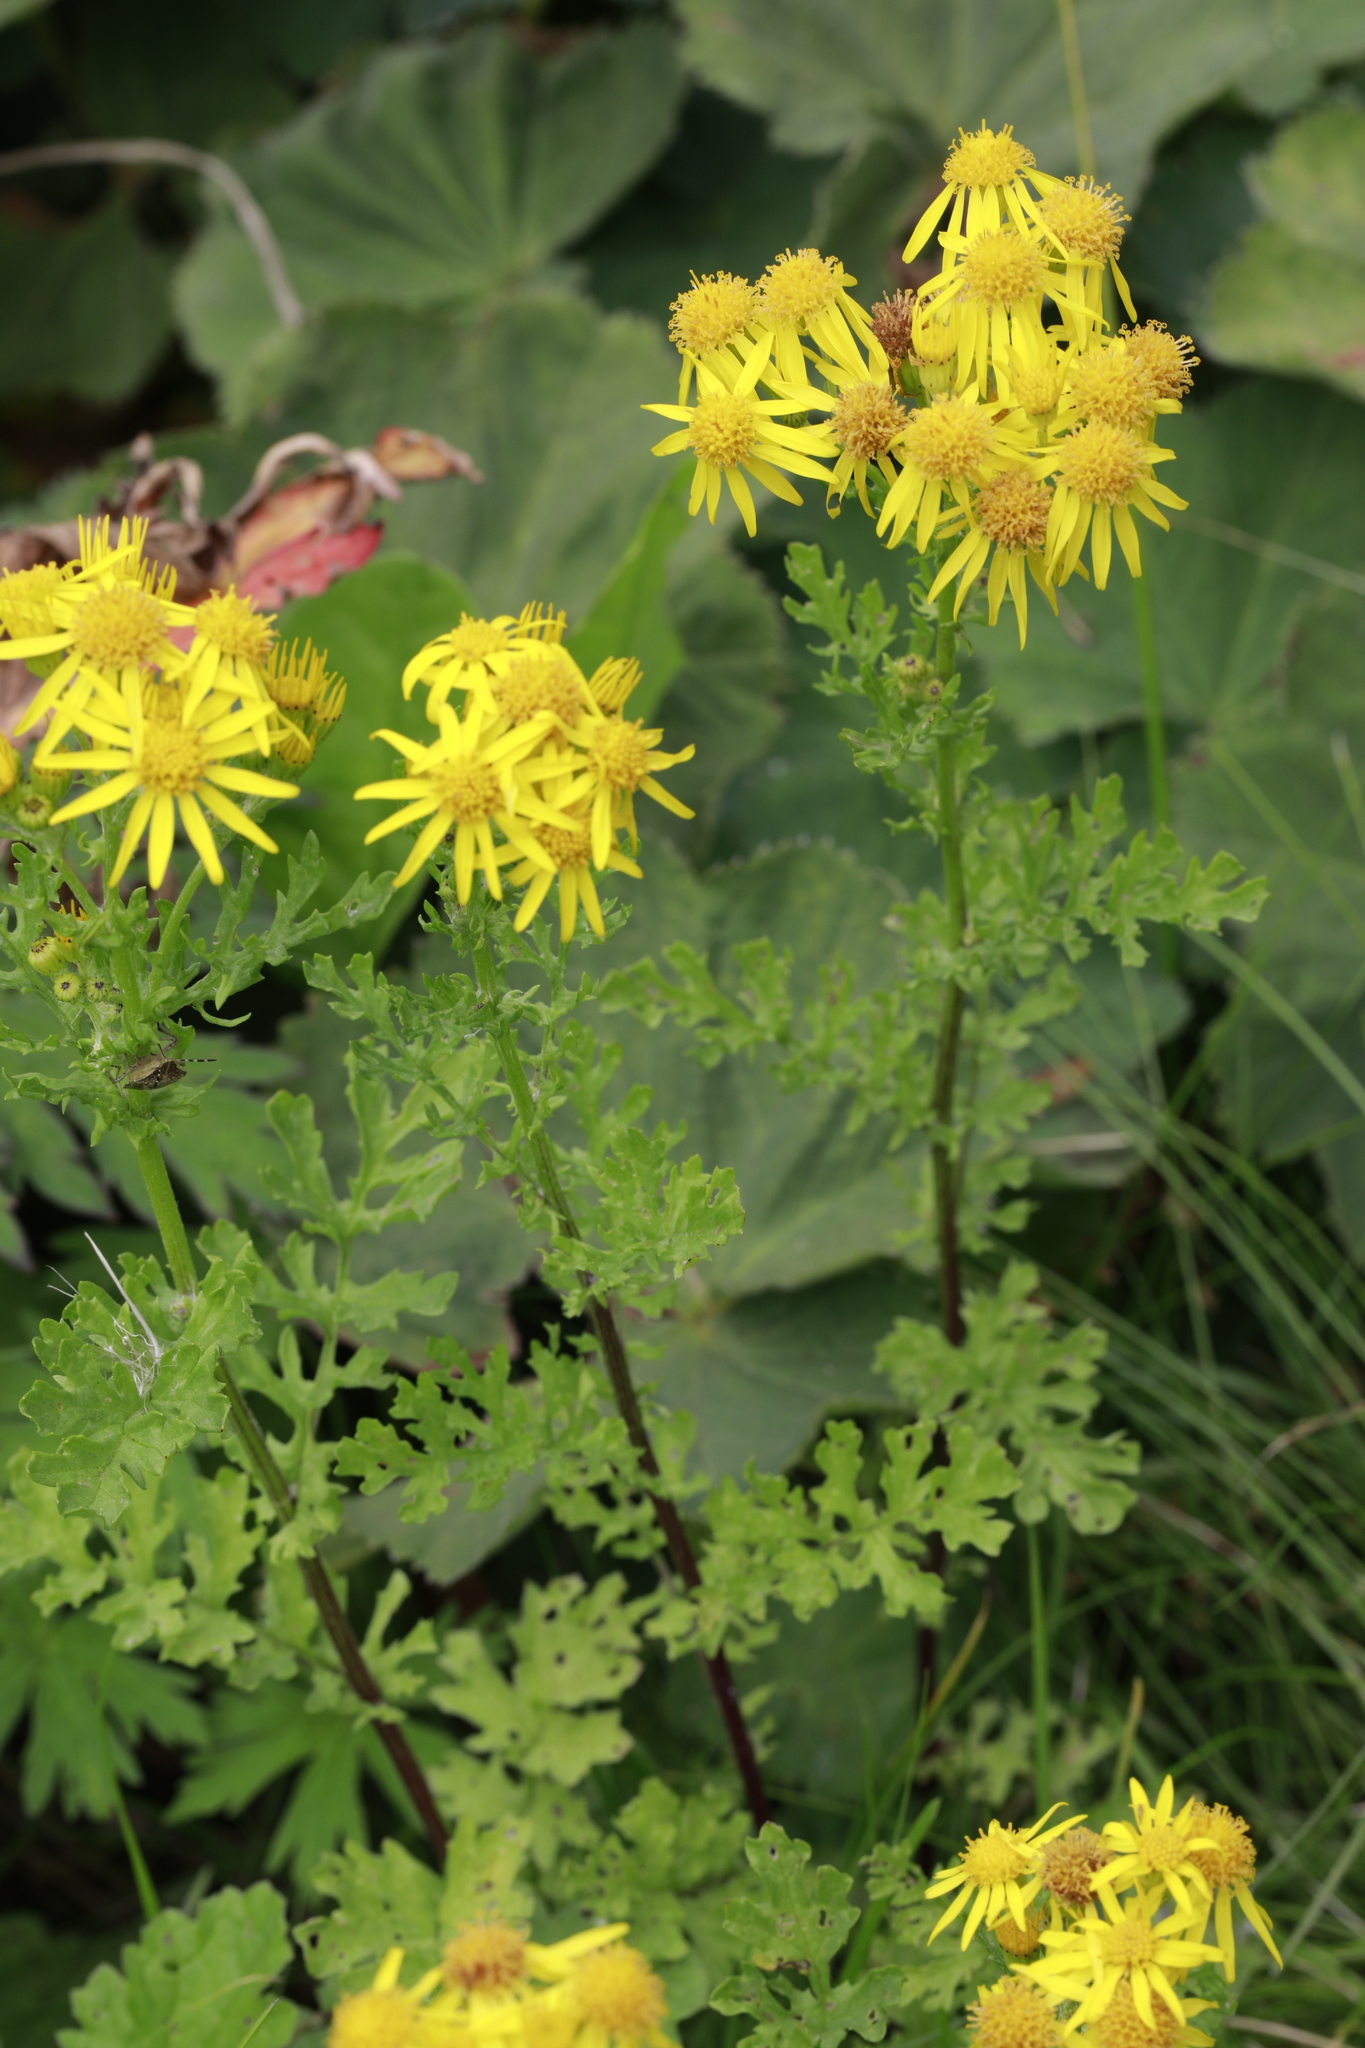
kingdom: Plantae
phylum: Tracheophyta
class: Magnoliopsida
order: Asterales
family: Asteraceae
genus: Jacobaea
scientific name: Jacobaea vulgaris
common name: Stinking willie
